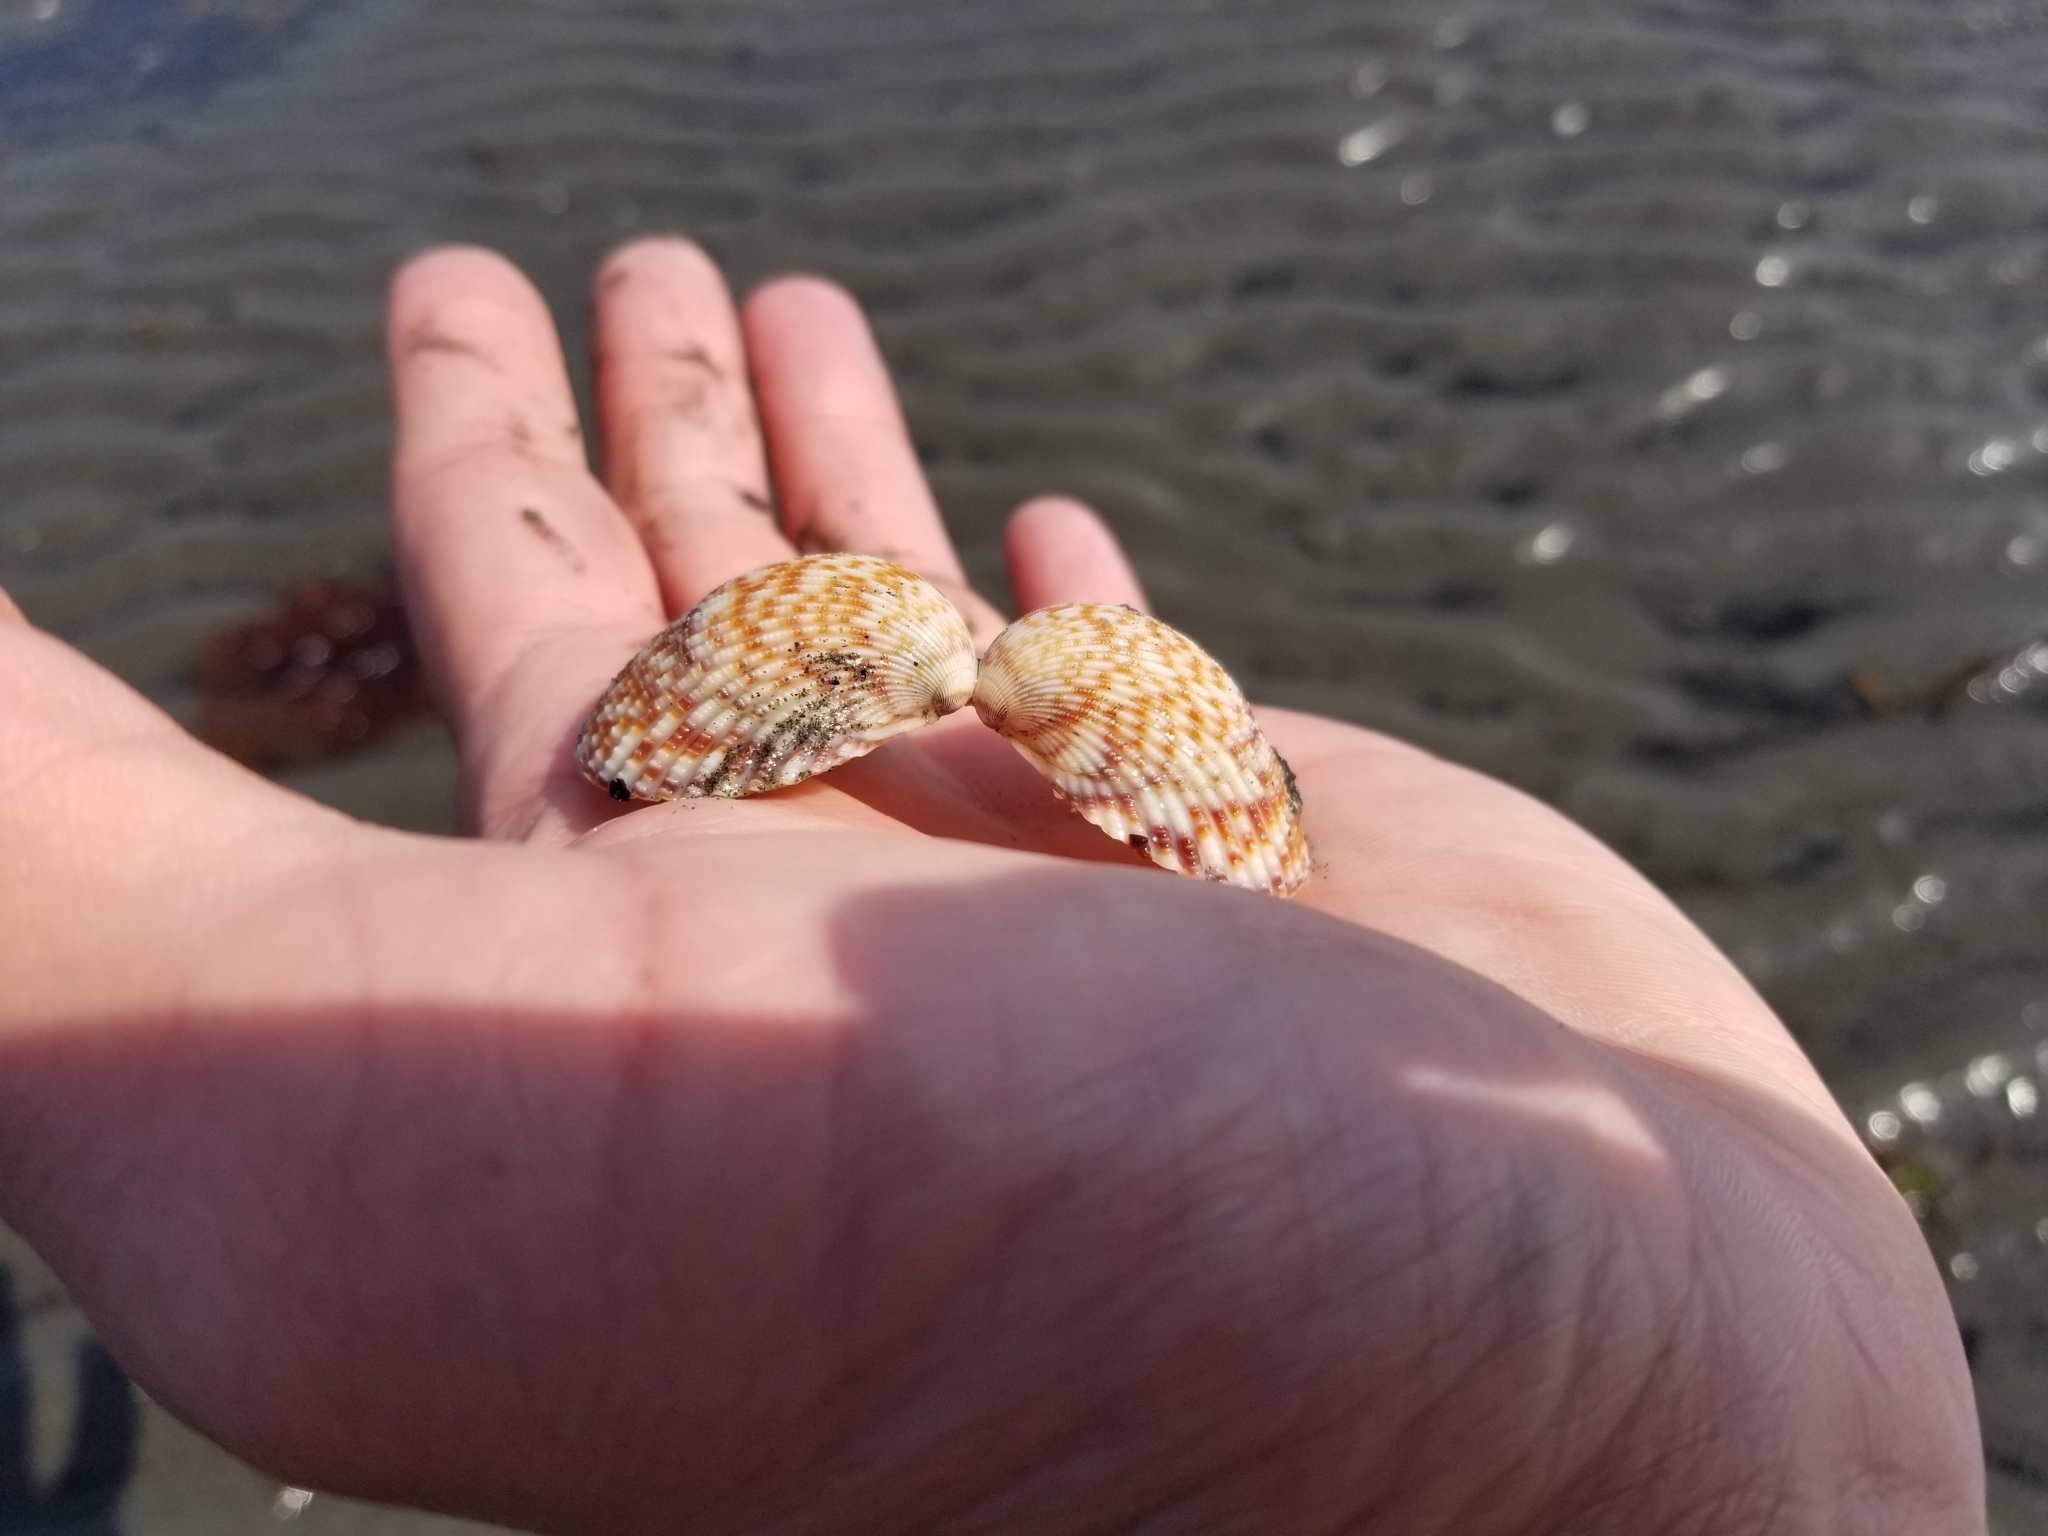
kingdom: Animalia
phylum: Mollusca
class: Bivalvia
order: Cardiida
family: Cardiidae
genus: Clinocardium
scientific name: Clinocardium nuttallii
